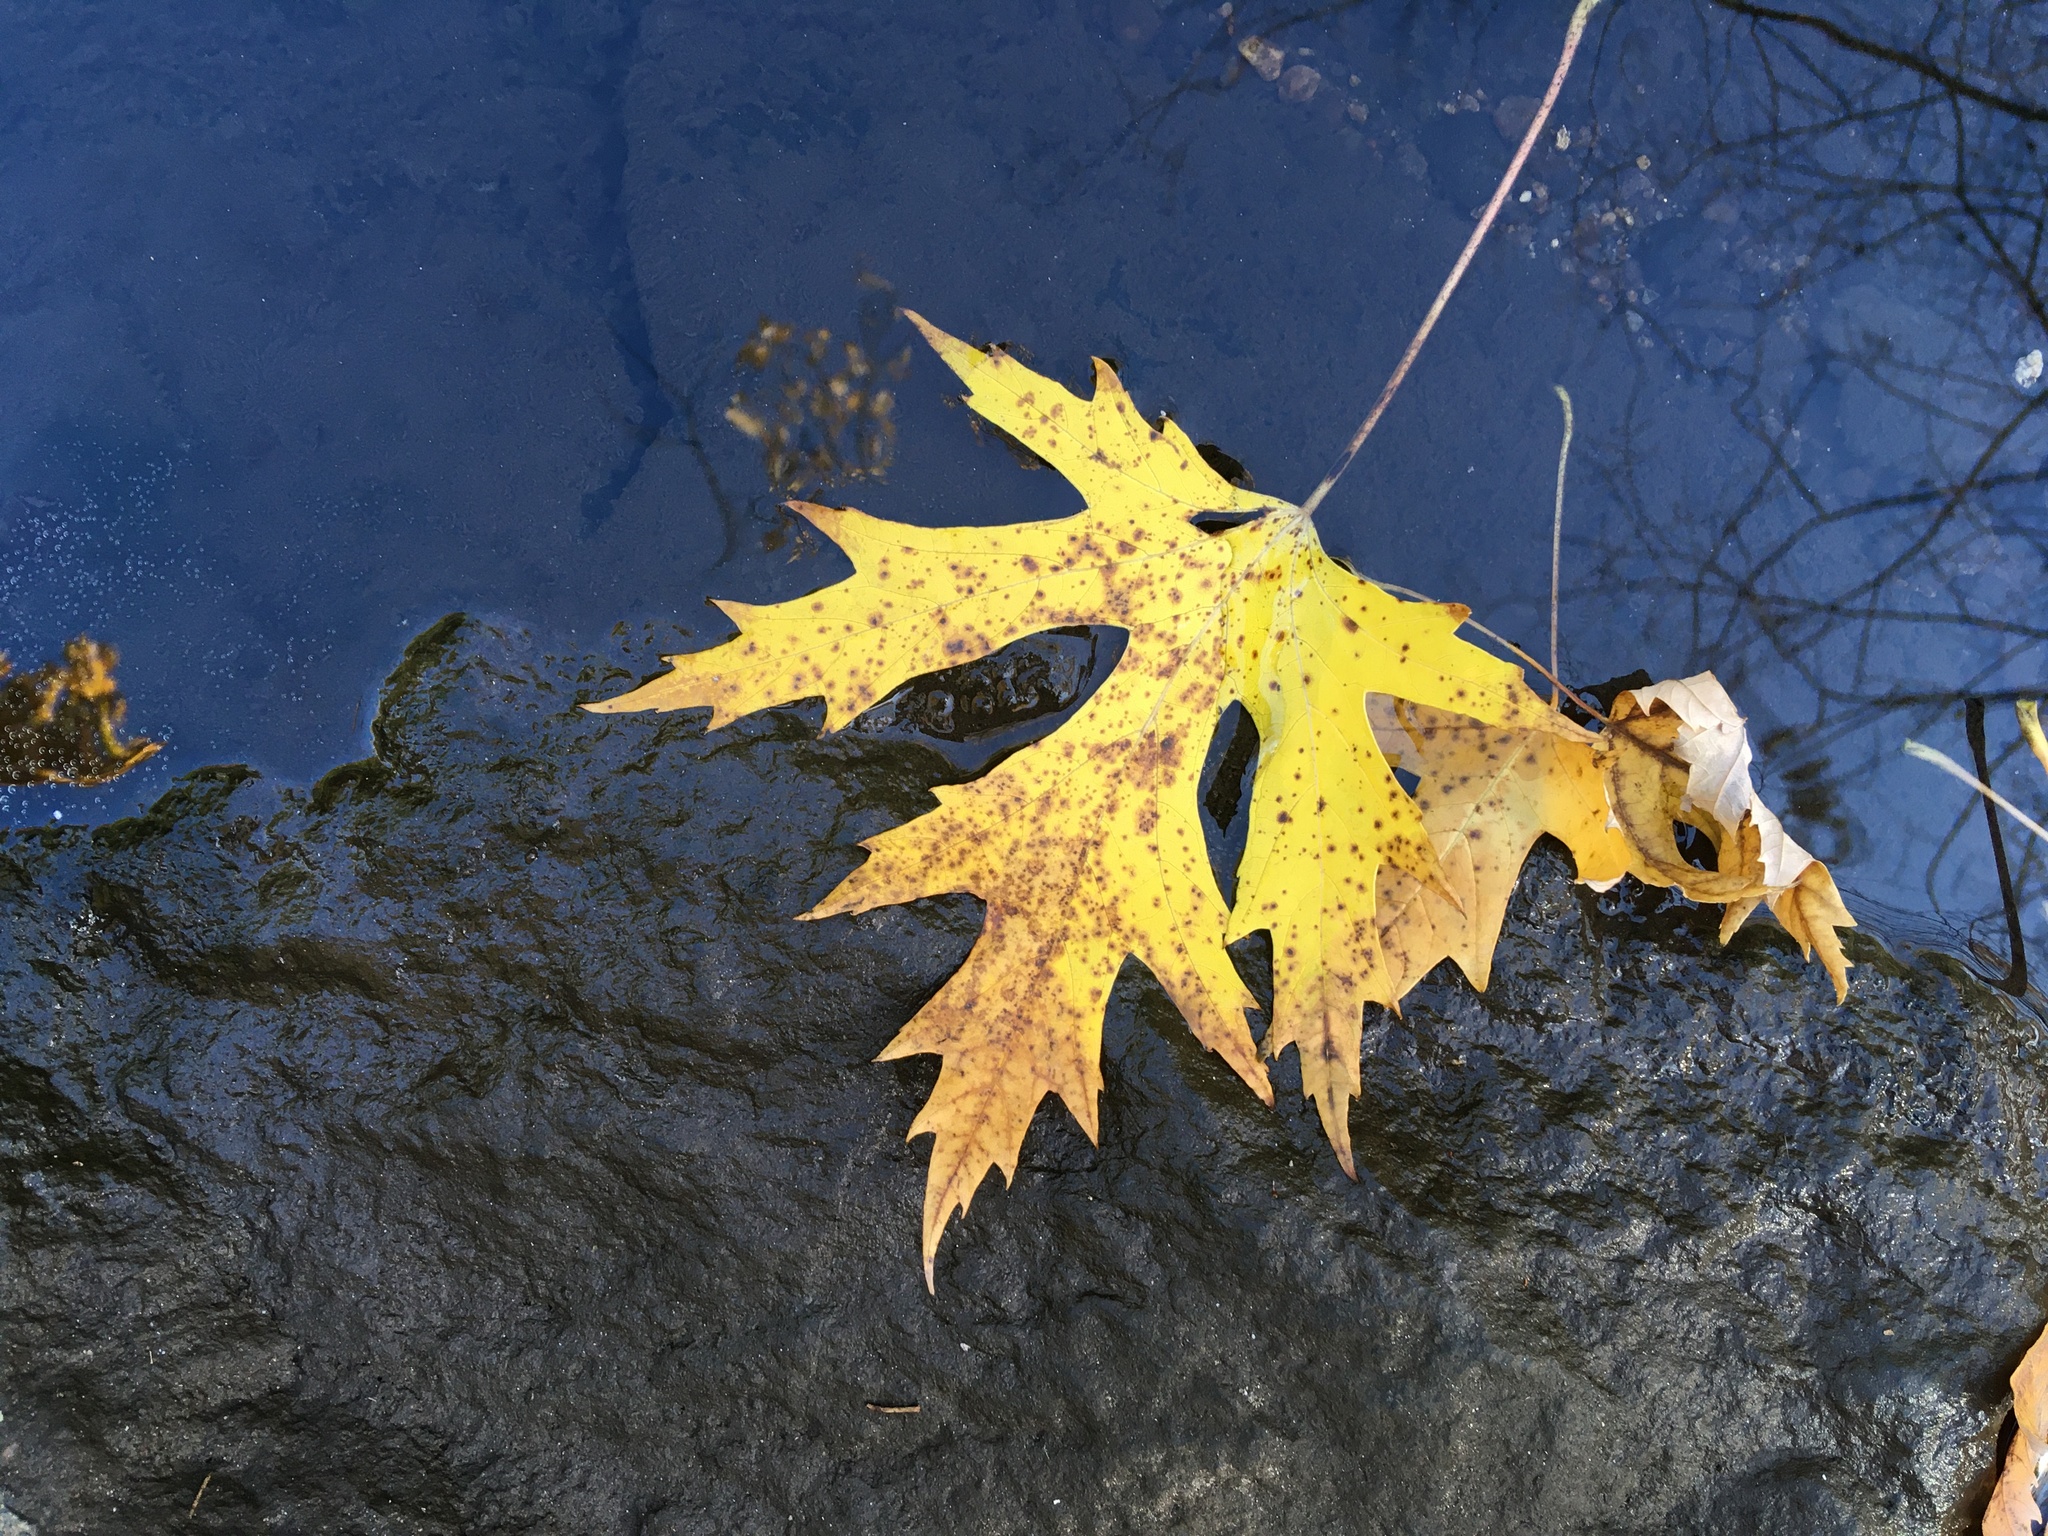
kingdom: Plantae
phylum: Tracheophyta
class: Magnoliopsida
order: Sapindales
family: Sapindaceae
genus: Acer
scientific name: Acer saccharinum
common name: Silver maple
